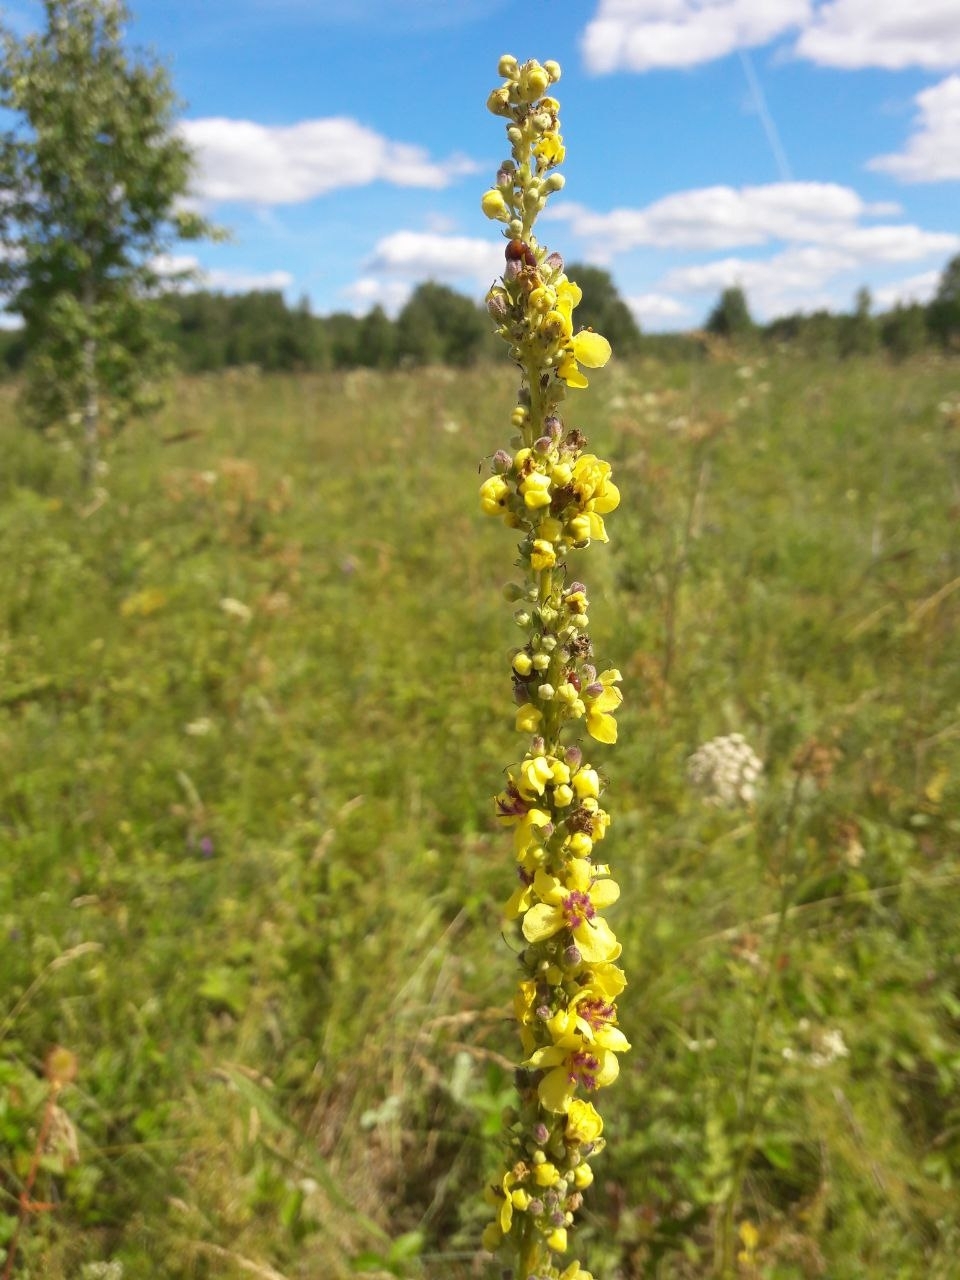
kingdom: Plantae
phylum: Tracheophyta
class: Magnoliopsida
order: Lamiales
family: Scrophulariaceae
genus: Verbascum
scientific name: Verbascum nigrum
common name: Dark mullein
